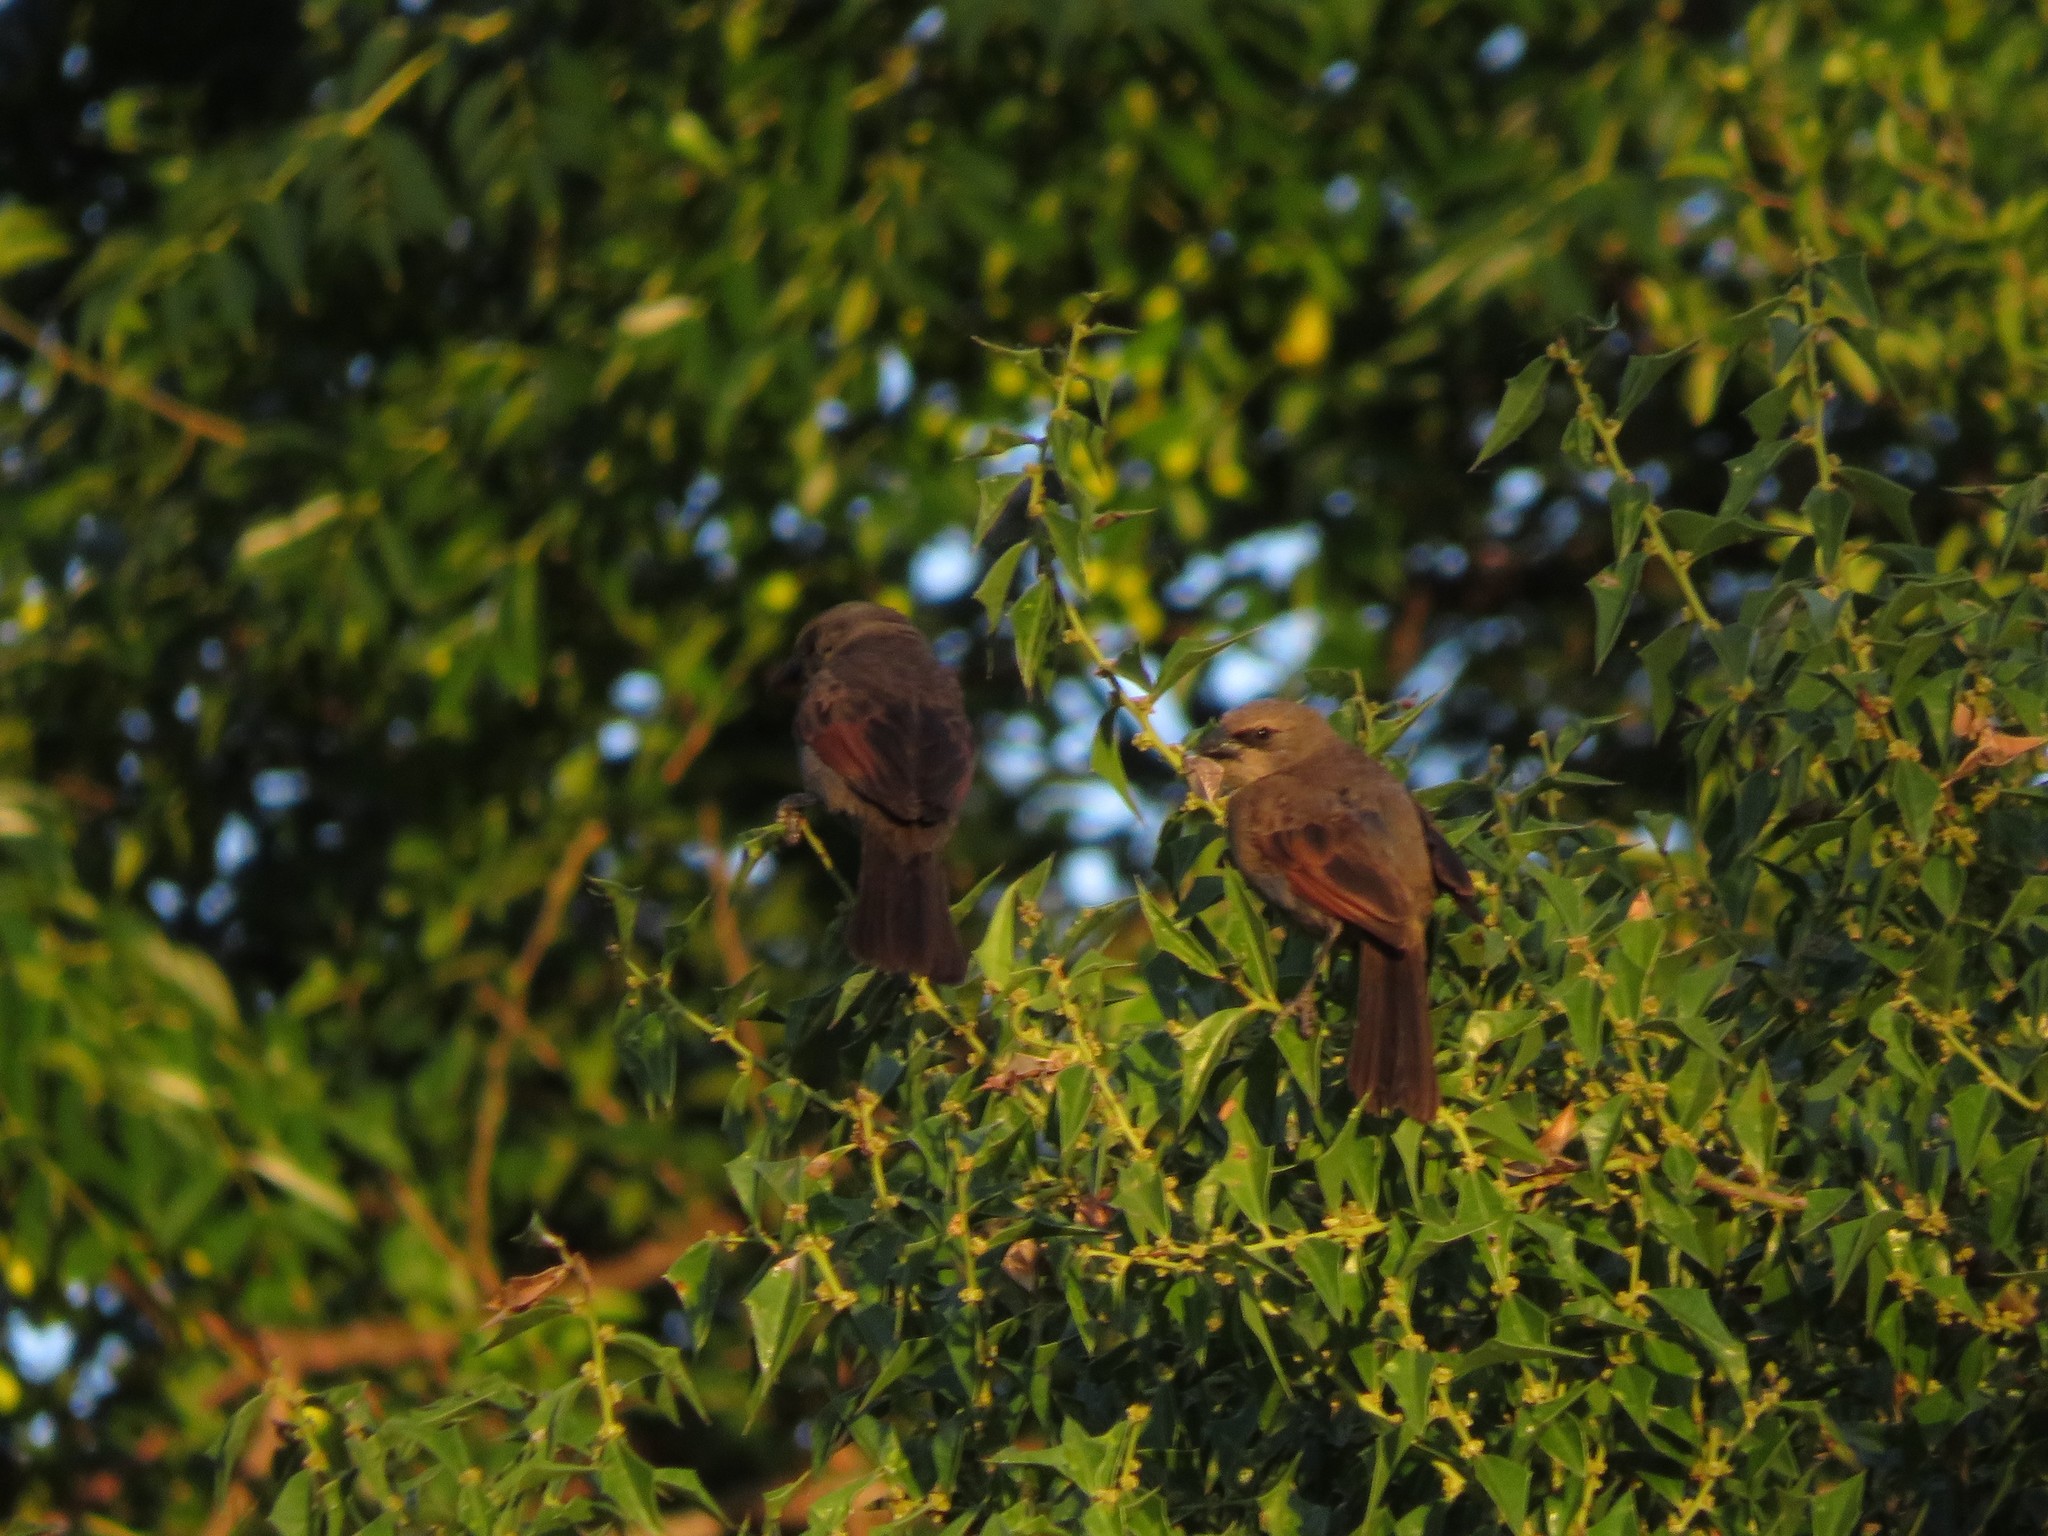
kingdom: Animalia
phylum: Chordata
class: Aves
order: Passeriformes
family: Icteridae
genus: Agelaioides
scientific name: Agelaioides badius
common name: Baywing
